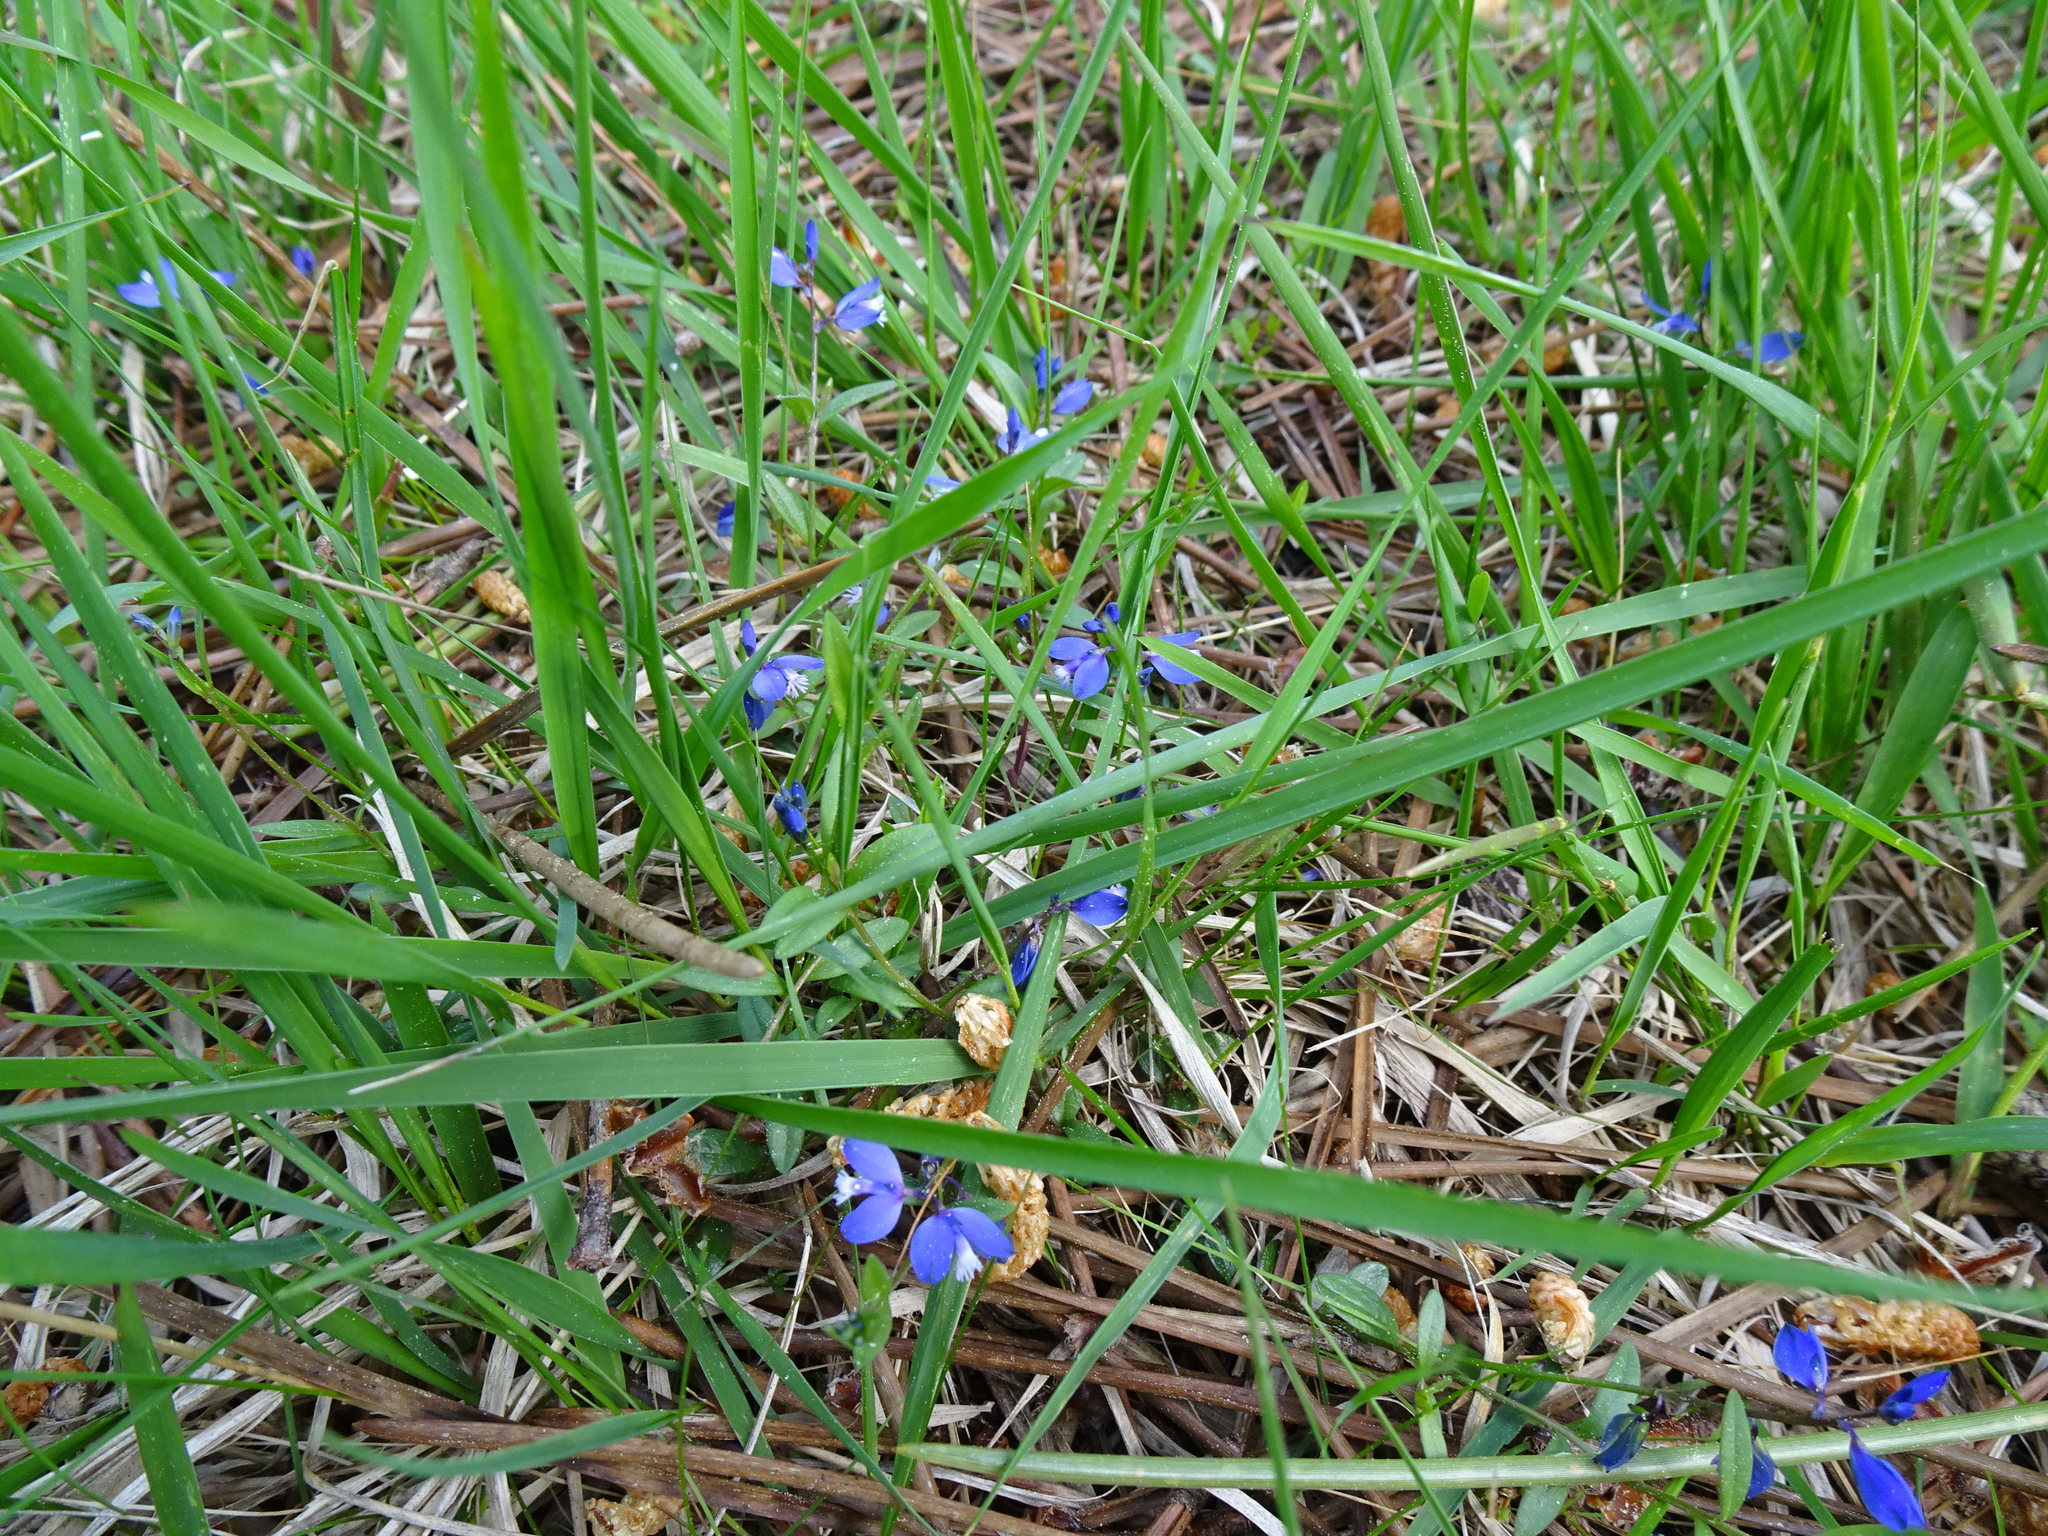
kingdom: Plantae
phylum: Tracheophyta
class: Magnoliopsida
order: Fabales
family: Polygalaceae
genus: Polygala
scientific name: Polygala vulgaris
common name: Common milkwort
